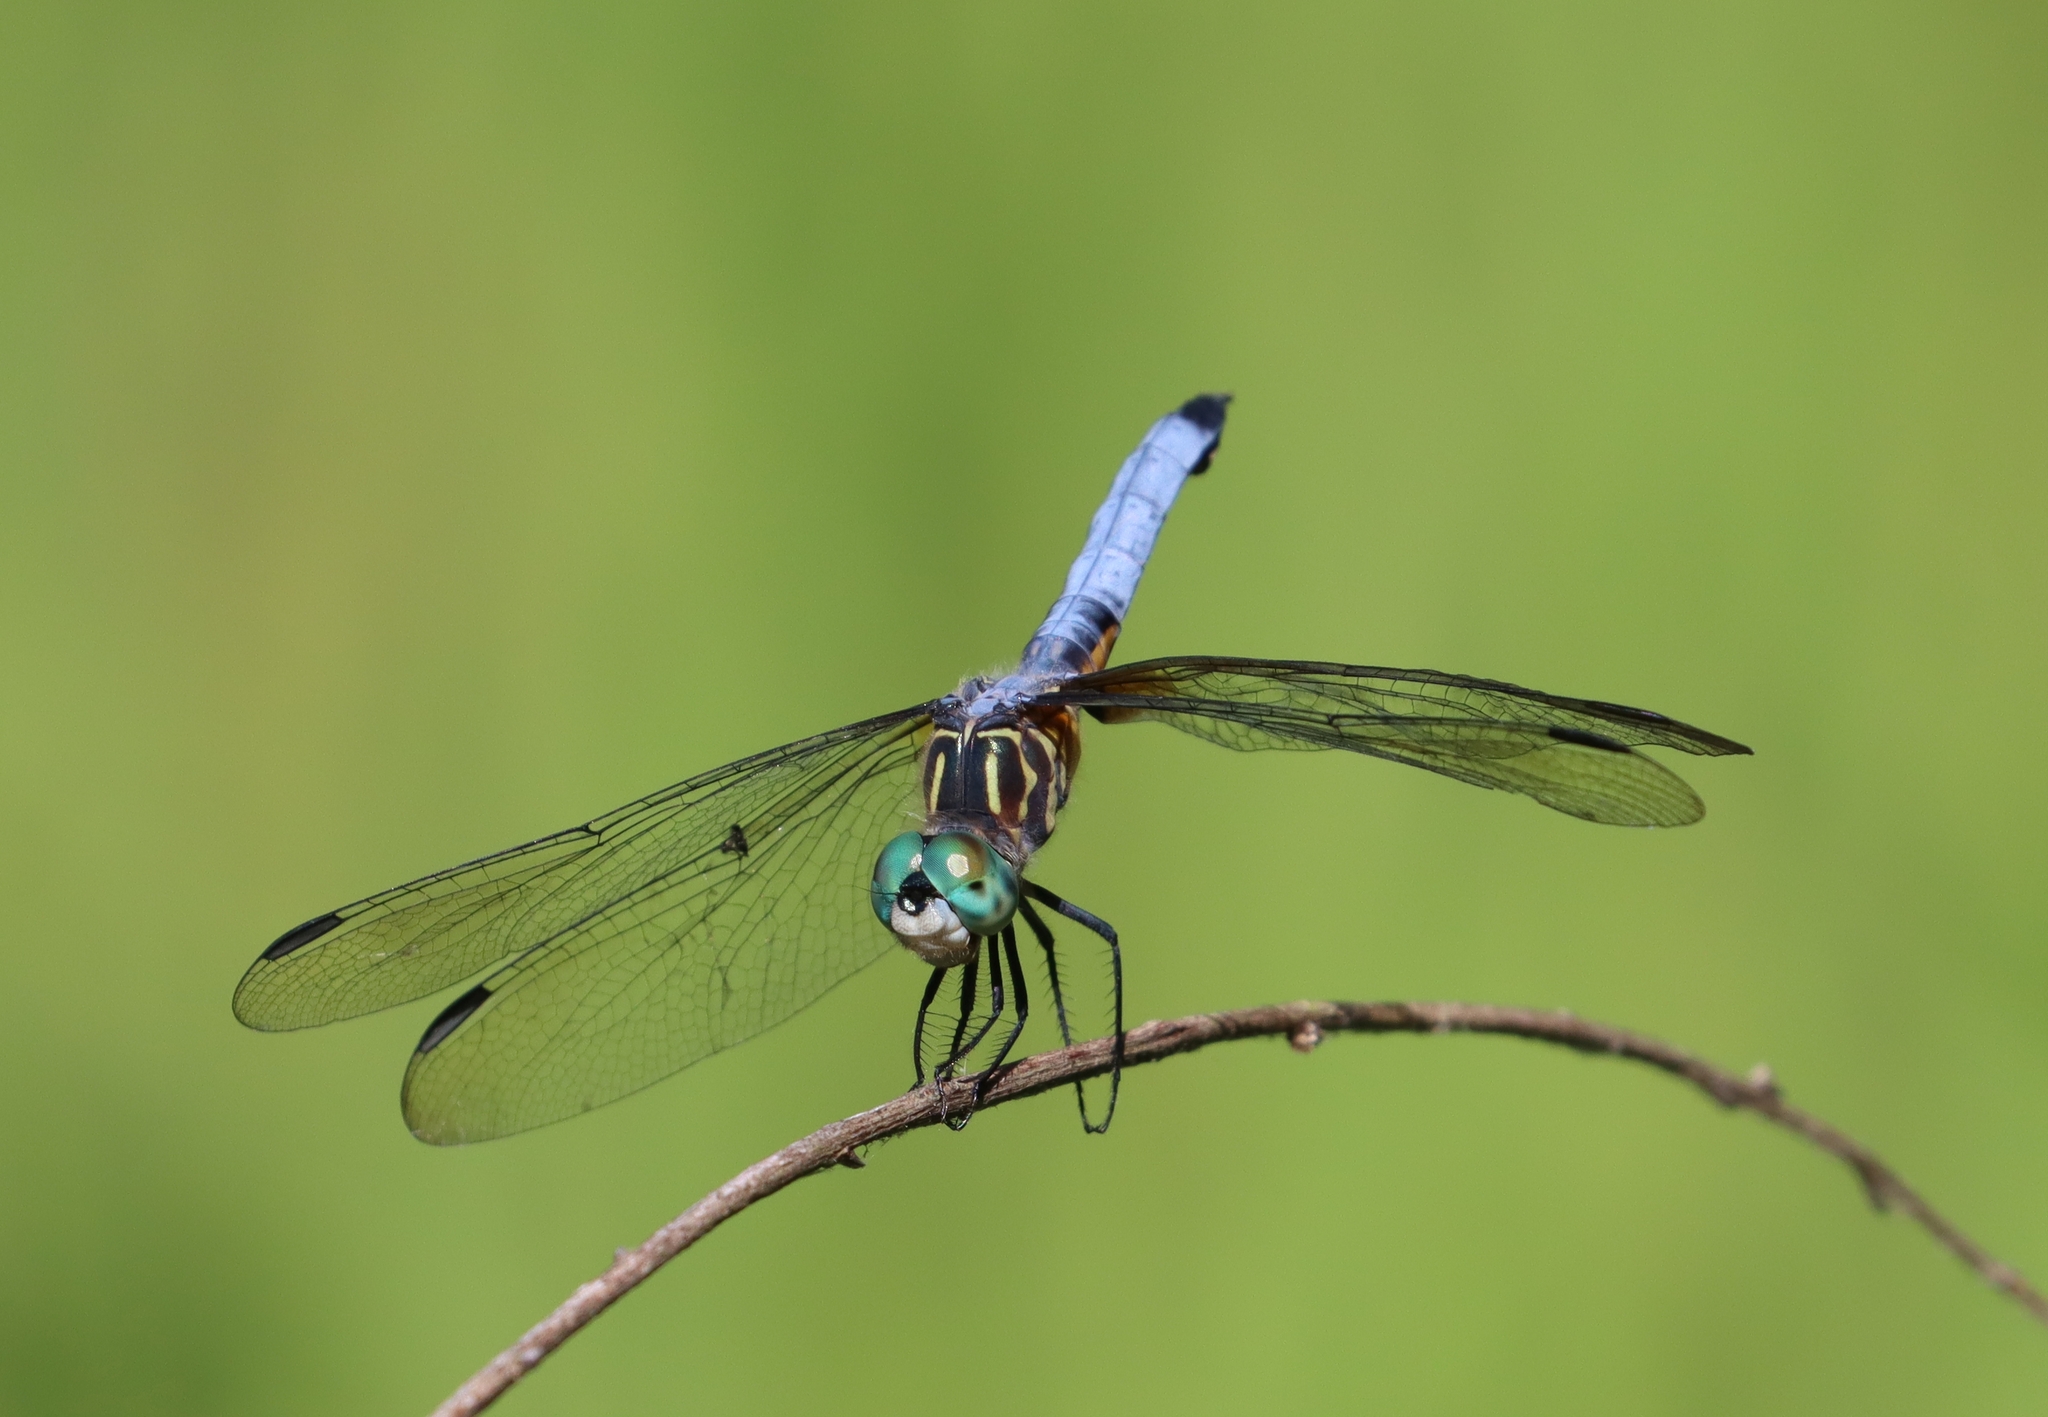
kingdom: Animalia
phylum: Arthropoda
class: Insecta
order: Odonata
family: Libellulidae
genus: Pachydiplax
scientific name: Pachydiplax longipennis
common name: Blue dasher
